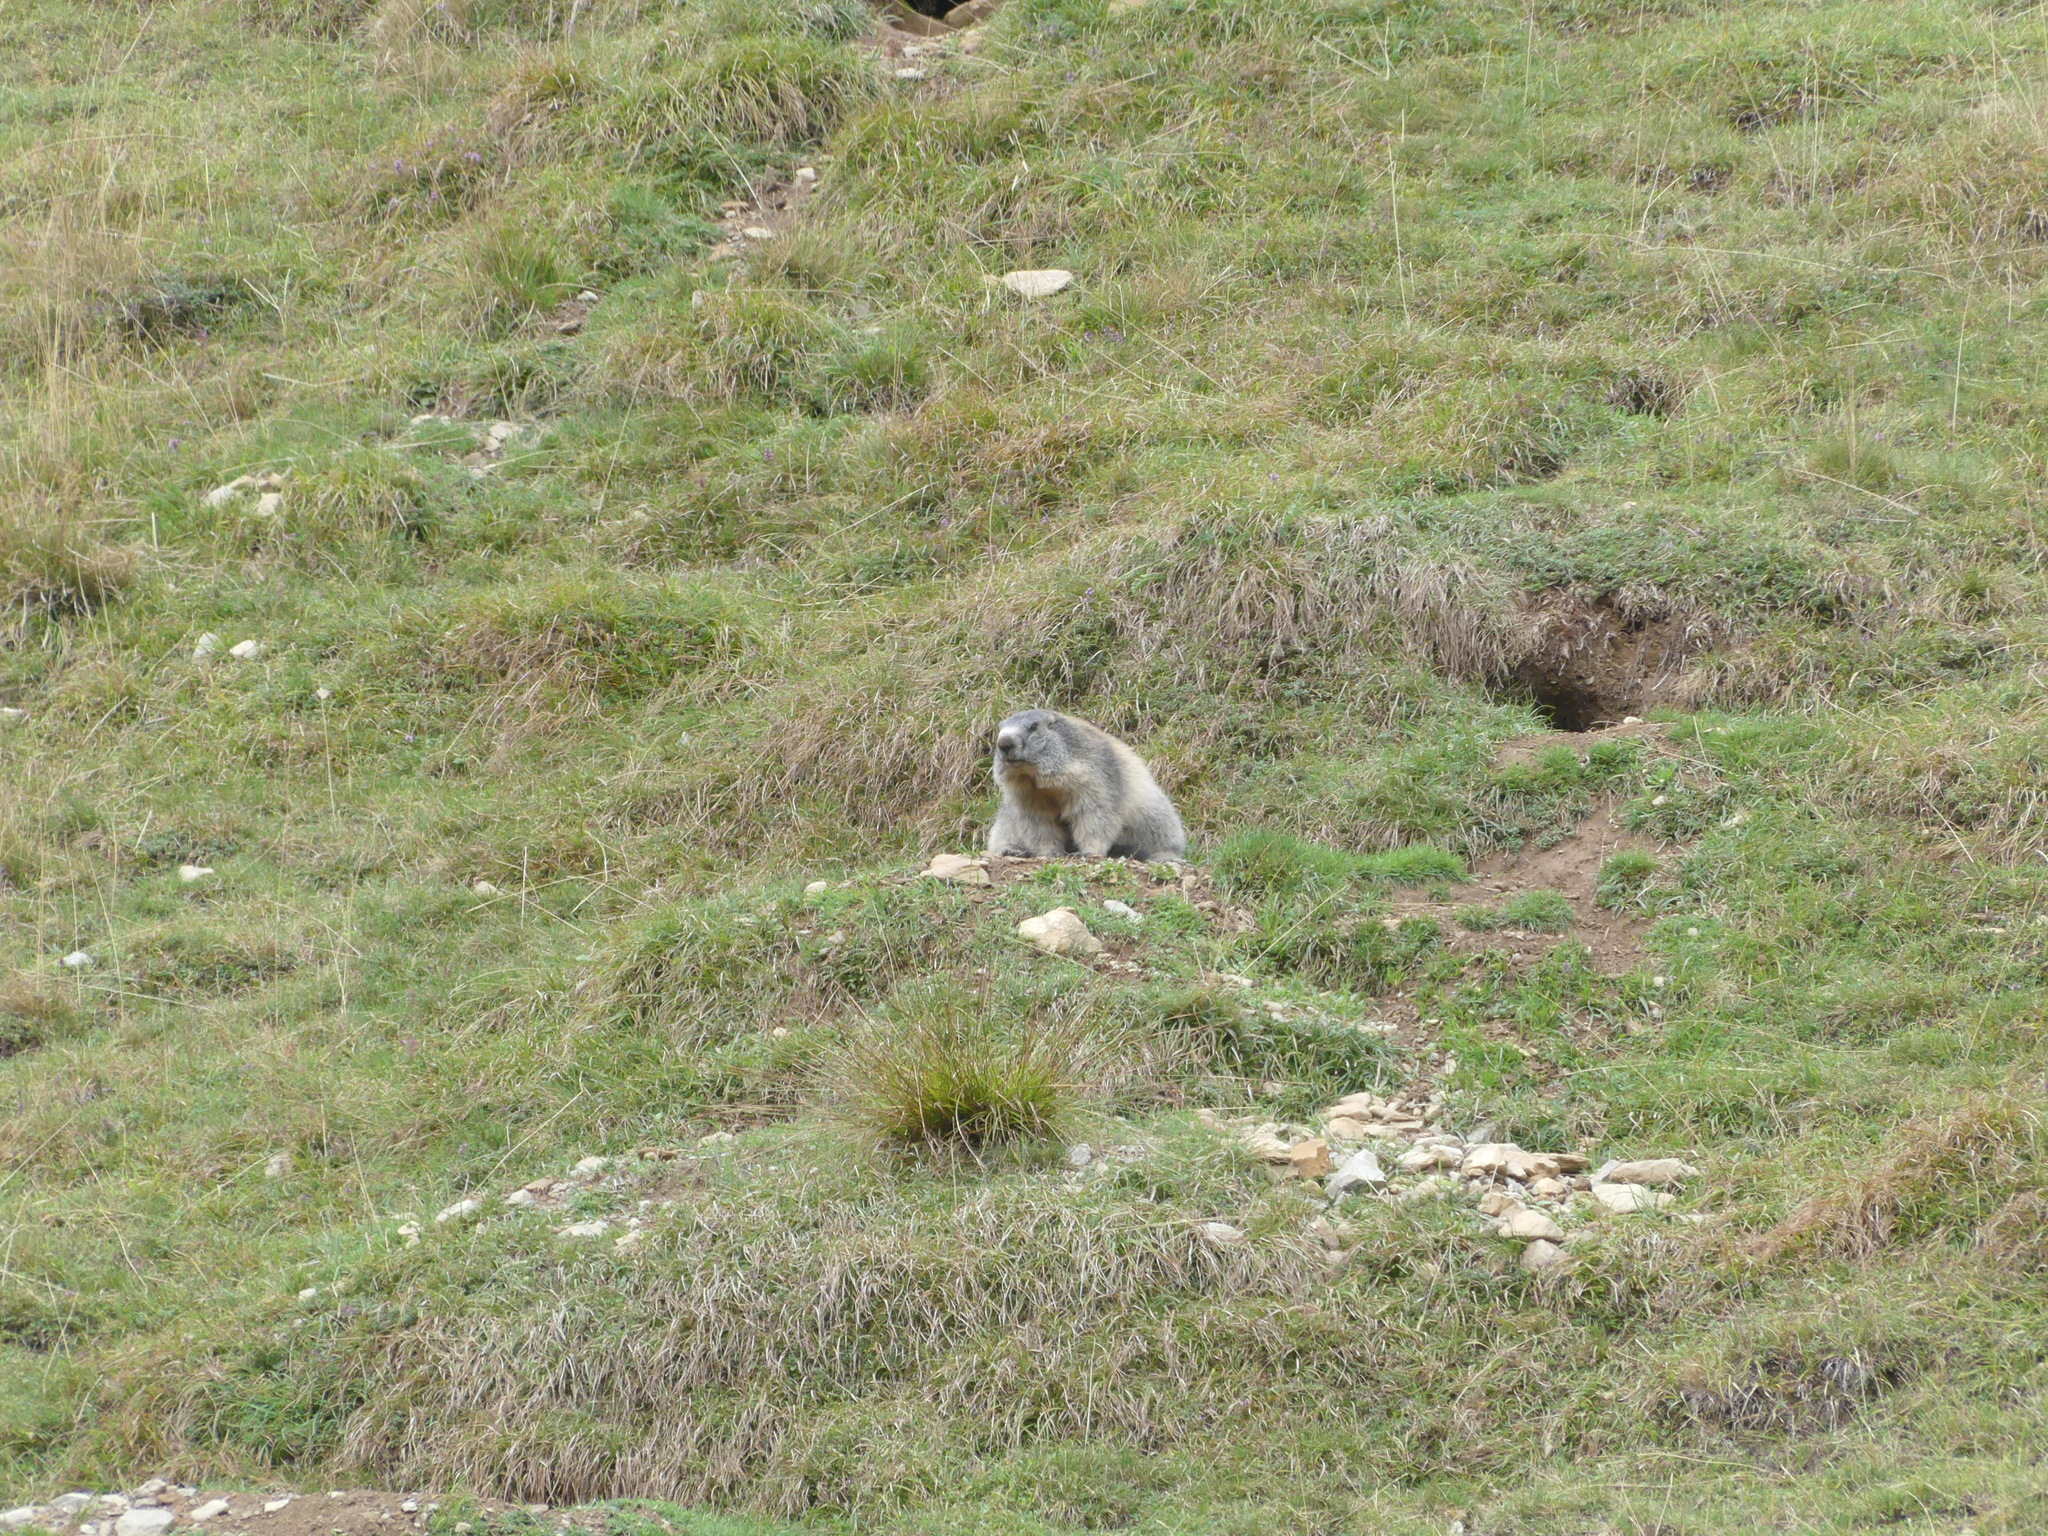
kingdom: Animalia
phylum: Chordata
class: Mammalia
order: Rodentia
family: Sciuridae
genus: Marmota
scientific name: Marmota marmota
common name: Alpine marmot
